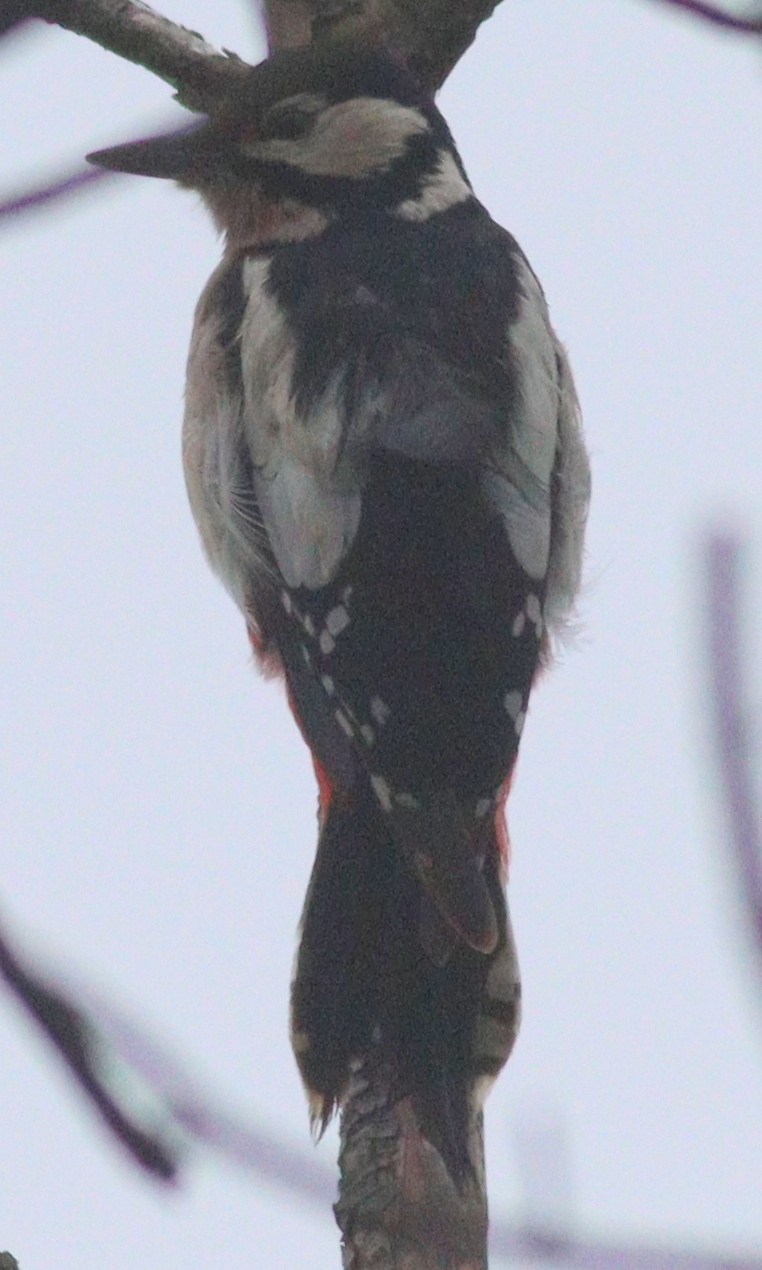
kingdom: Animalia
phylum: Chordata
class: Aves
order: Piciformes
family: Picidae
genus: Dendrocopos
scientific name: Dendrocopos major
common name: Great spotted woodpecker
